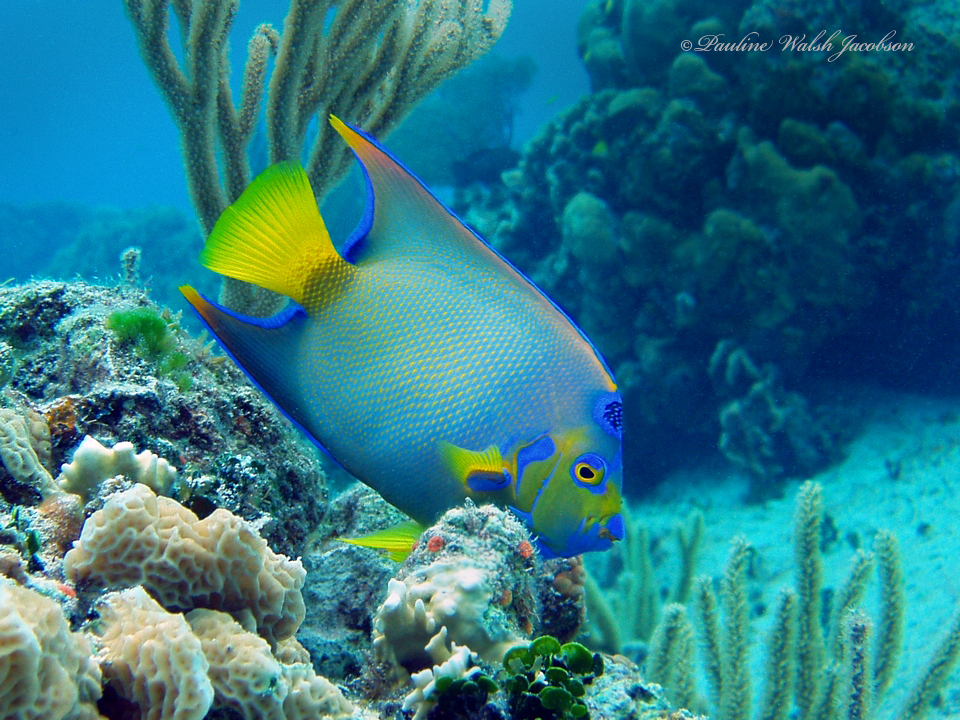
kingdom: Animalia
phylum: Chordata
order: Perciformes
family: Pomacanthidae
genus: Holacanthus
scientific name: Holacanthus ciliaris
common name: Queen angelfish
